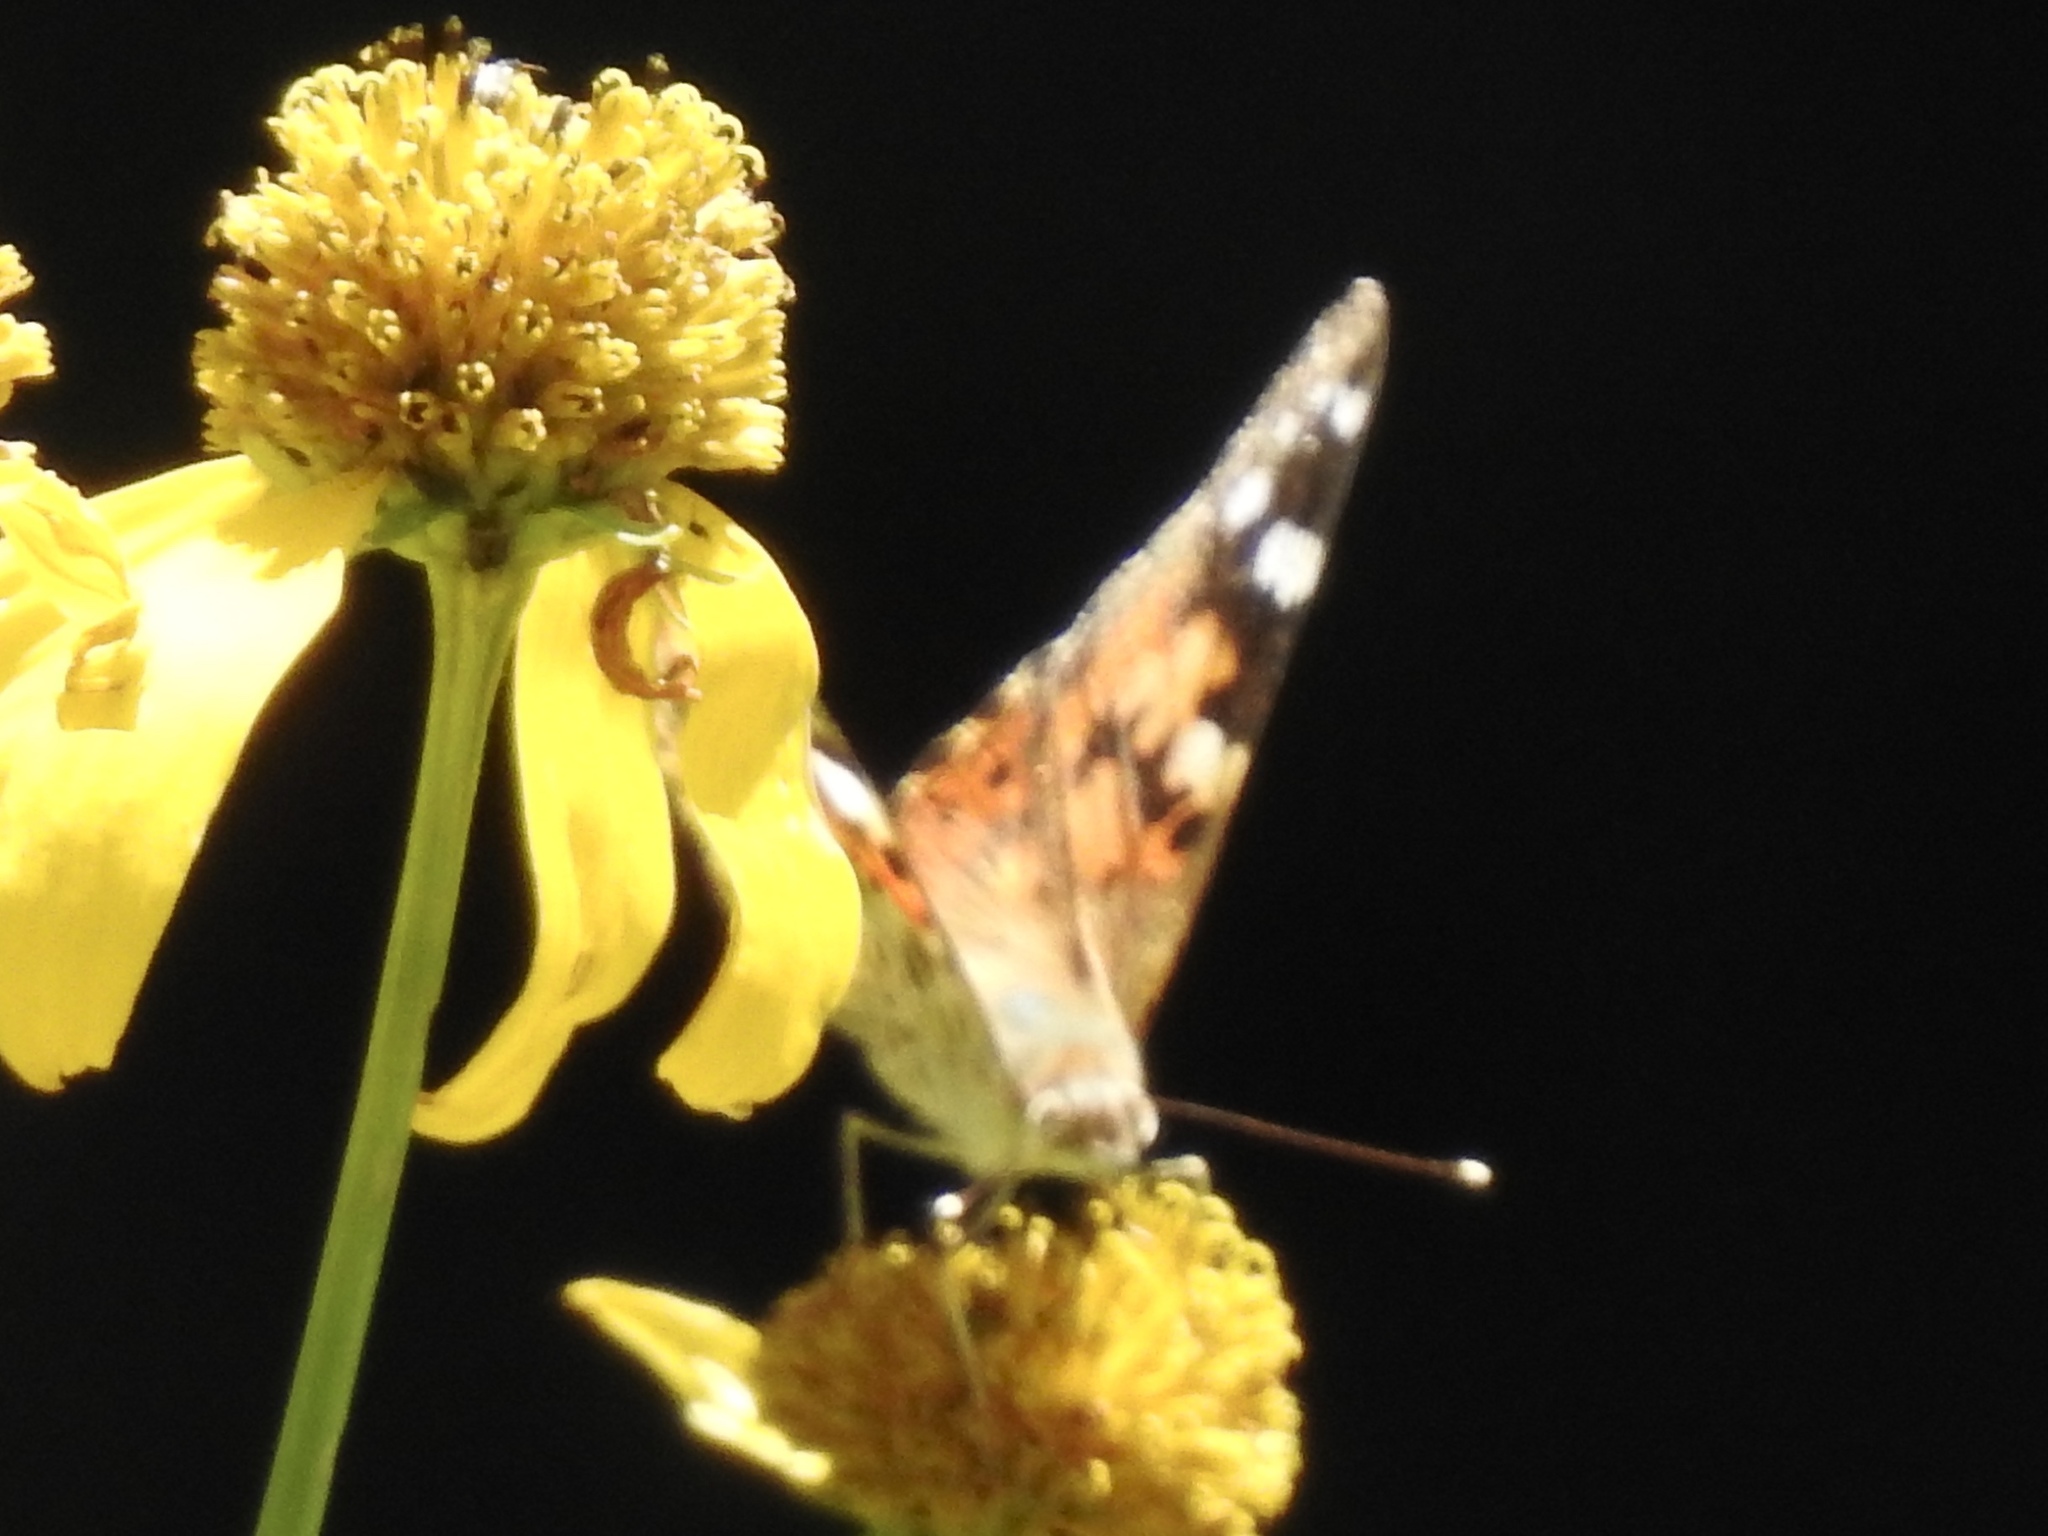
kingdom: Animalia
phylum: Arthropoda
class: Insecta
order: Lepidoptera
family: Nymphalidae
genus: Vanessa
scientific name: Vanessa cardui
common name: Painted lady
